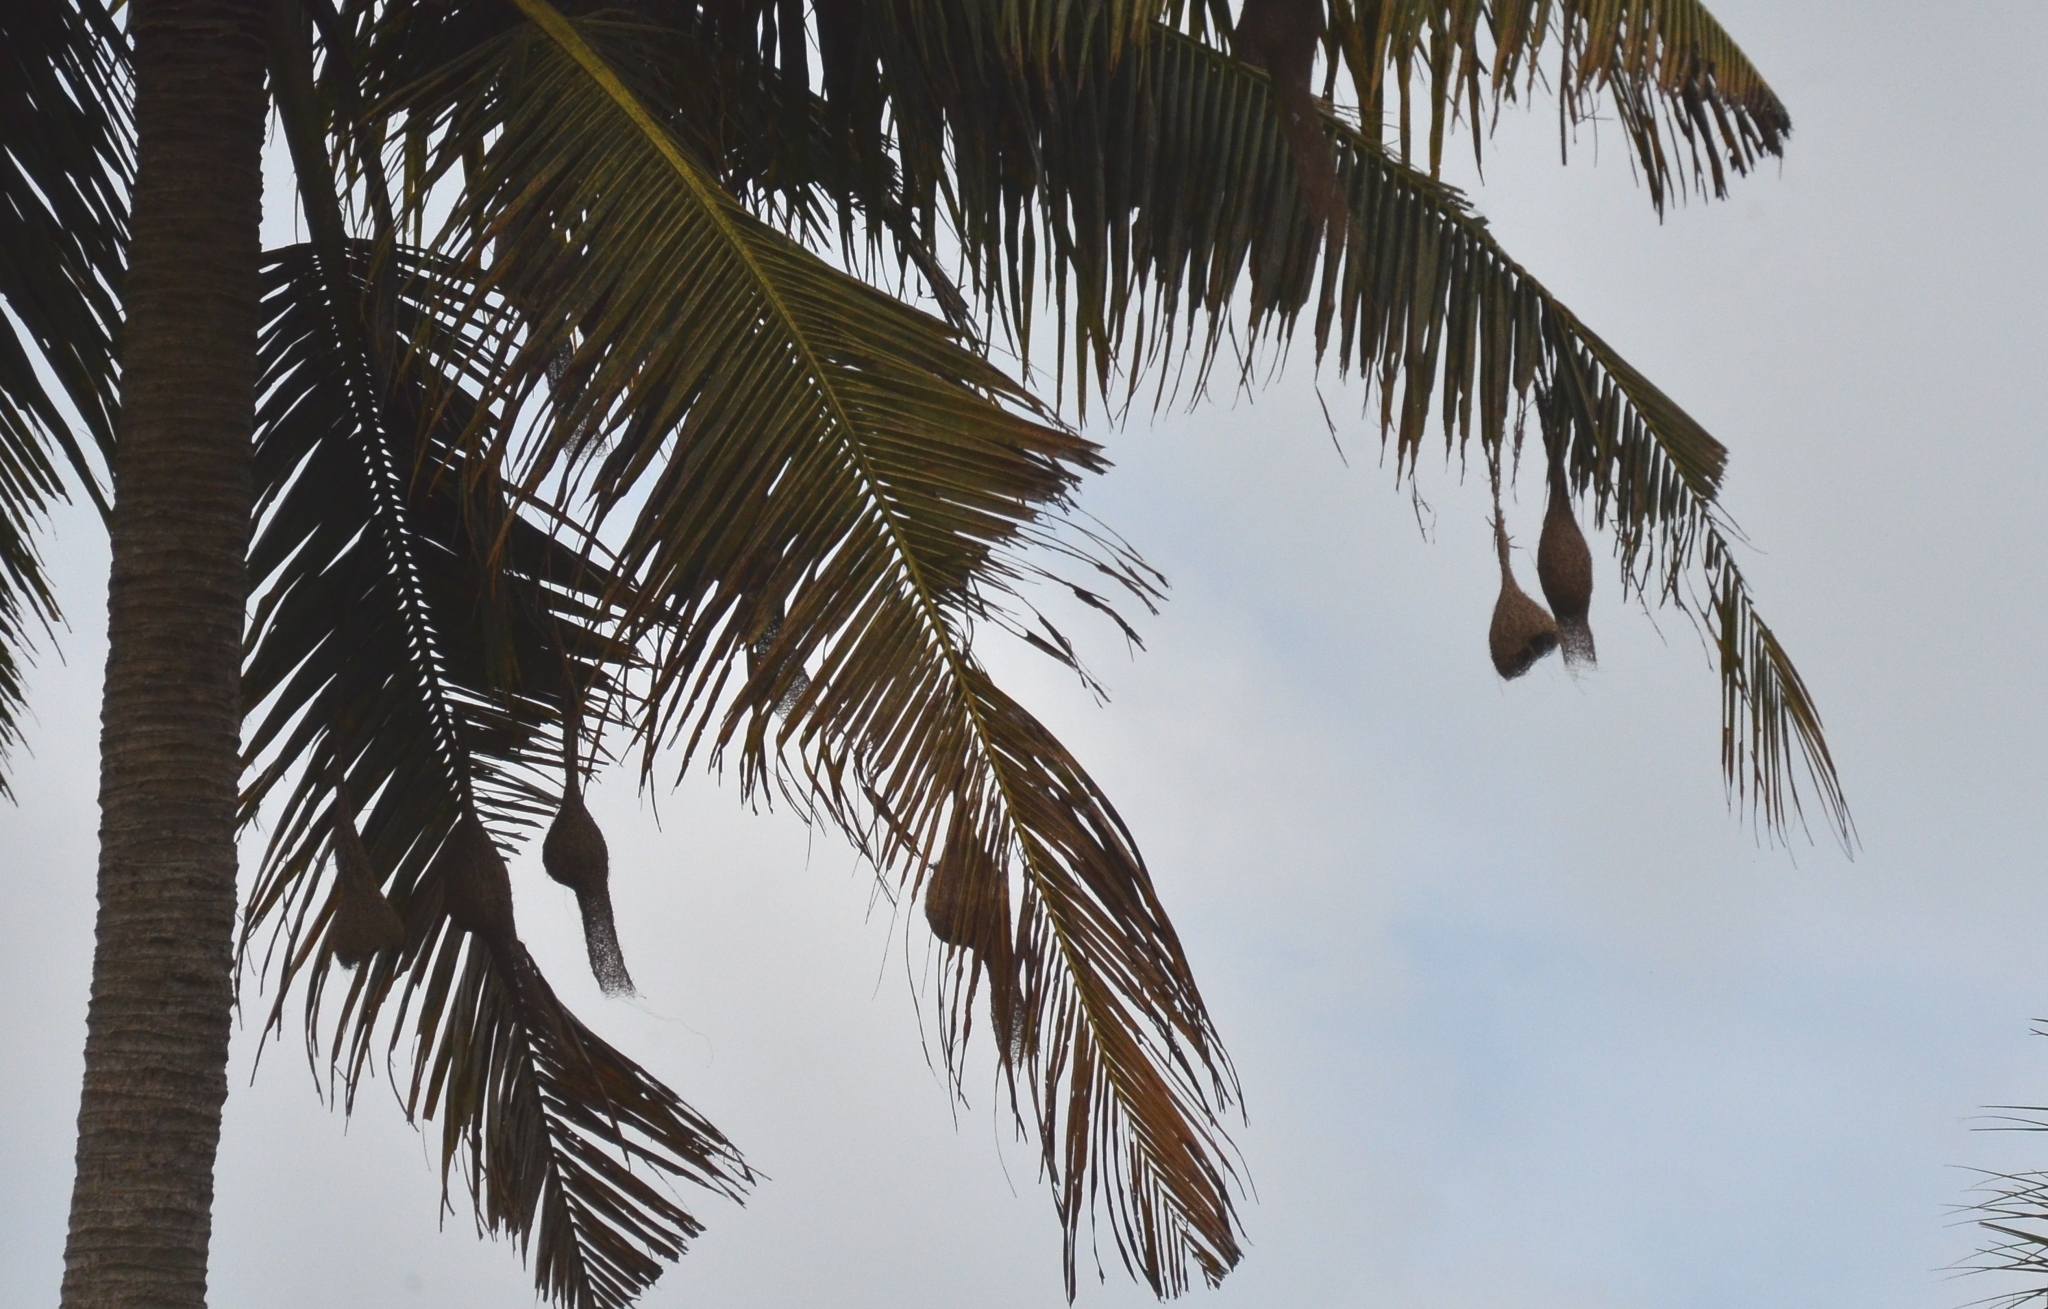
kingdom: Animalia
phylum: Chordata
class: Aves
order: Passeriformes
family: Ploceidae
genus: Ploceus
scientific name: Ploceus philippinus
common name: Baya weaver
